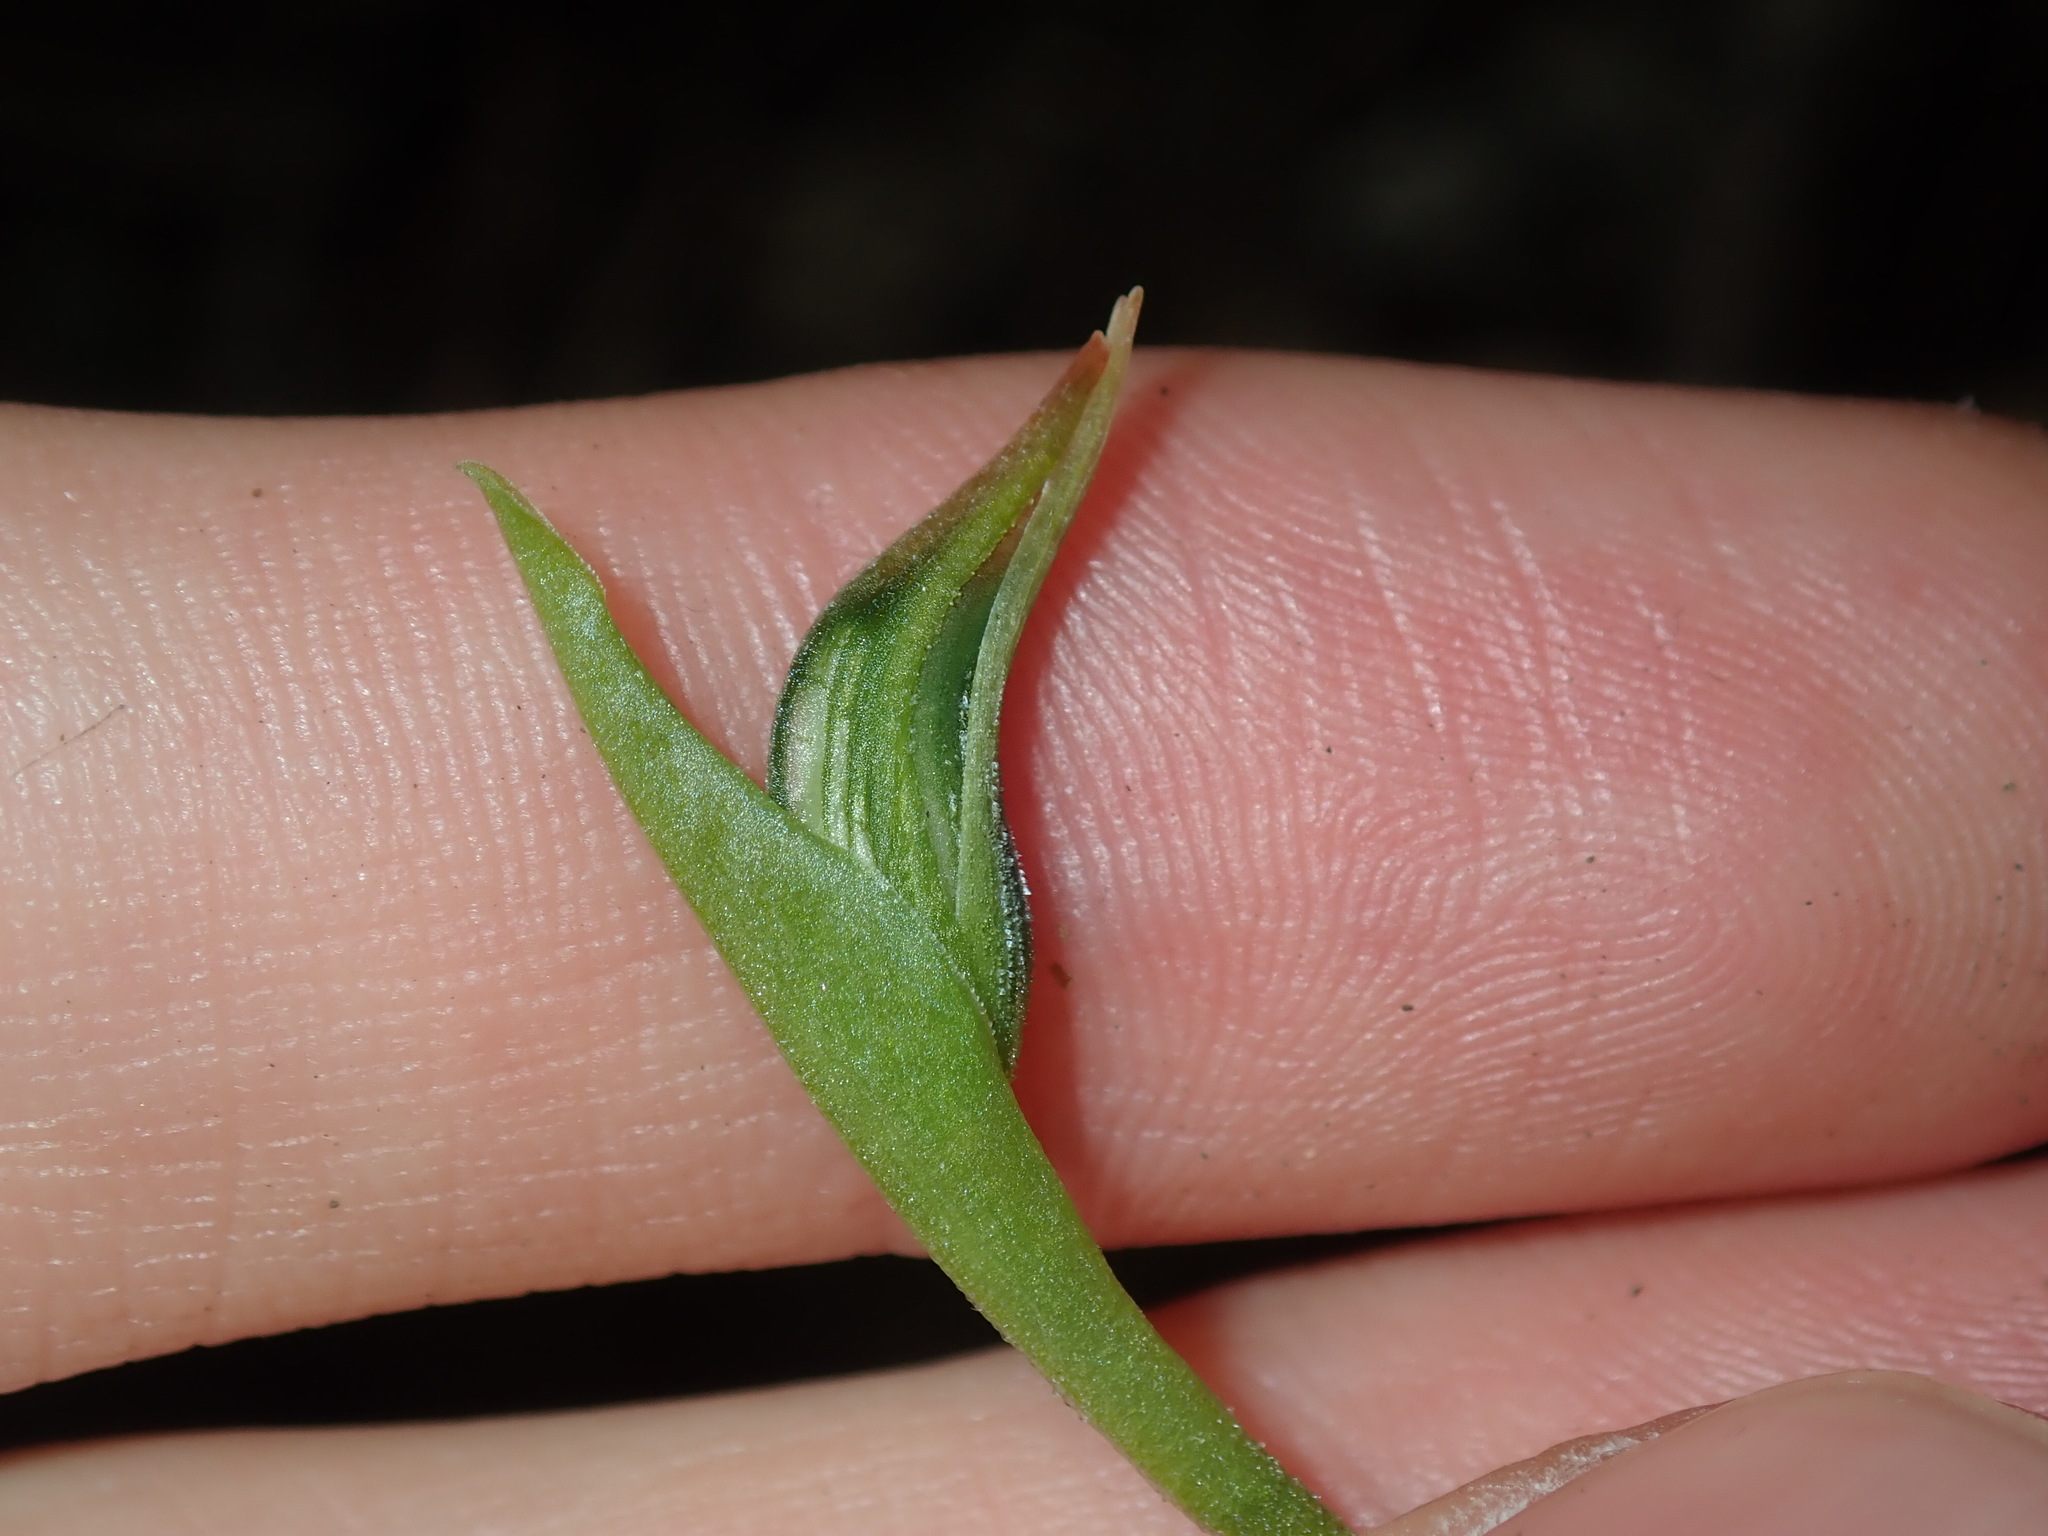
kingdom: Plantae
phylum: Tracheophyta
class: Liliopsida
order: Asparagales
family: Orchidaceae
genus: Pterostylis
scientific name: Pterostylis nutans
